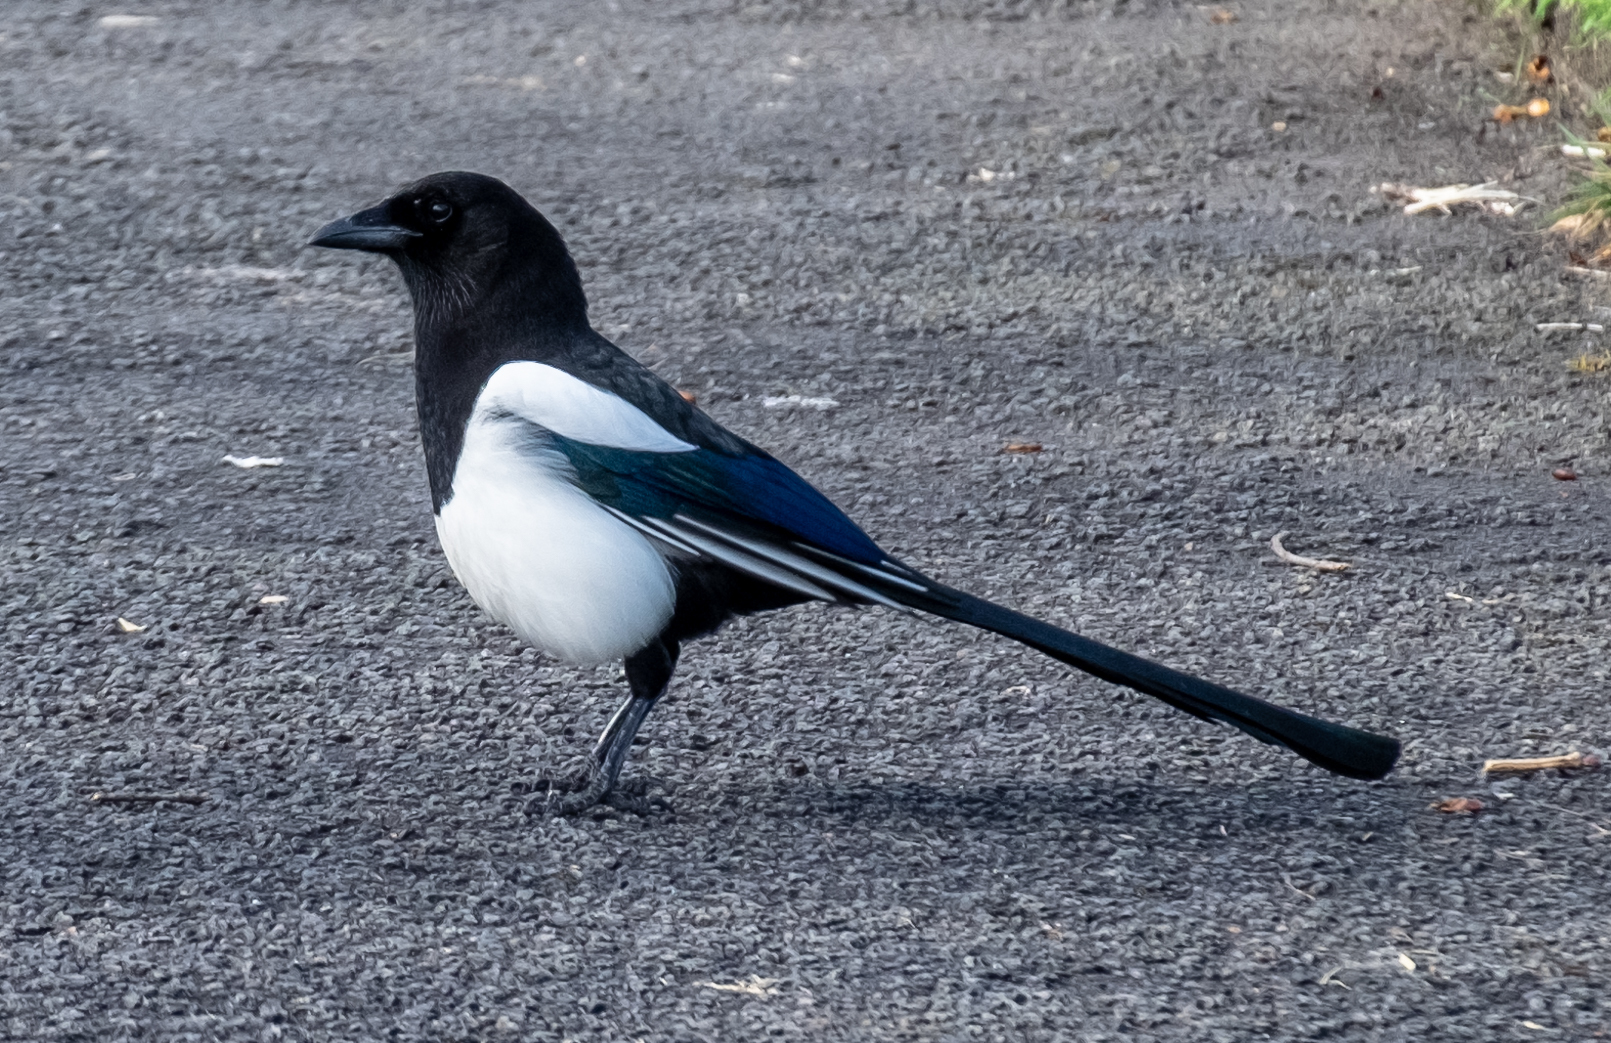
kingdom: Animalia
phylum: Chordata
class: Aves
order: Passeriformes
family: Corvidae
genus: Pica
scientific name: Pica pica
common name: Eurasian magpie
